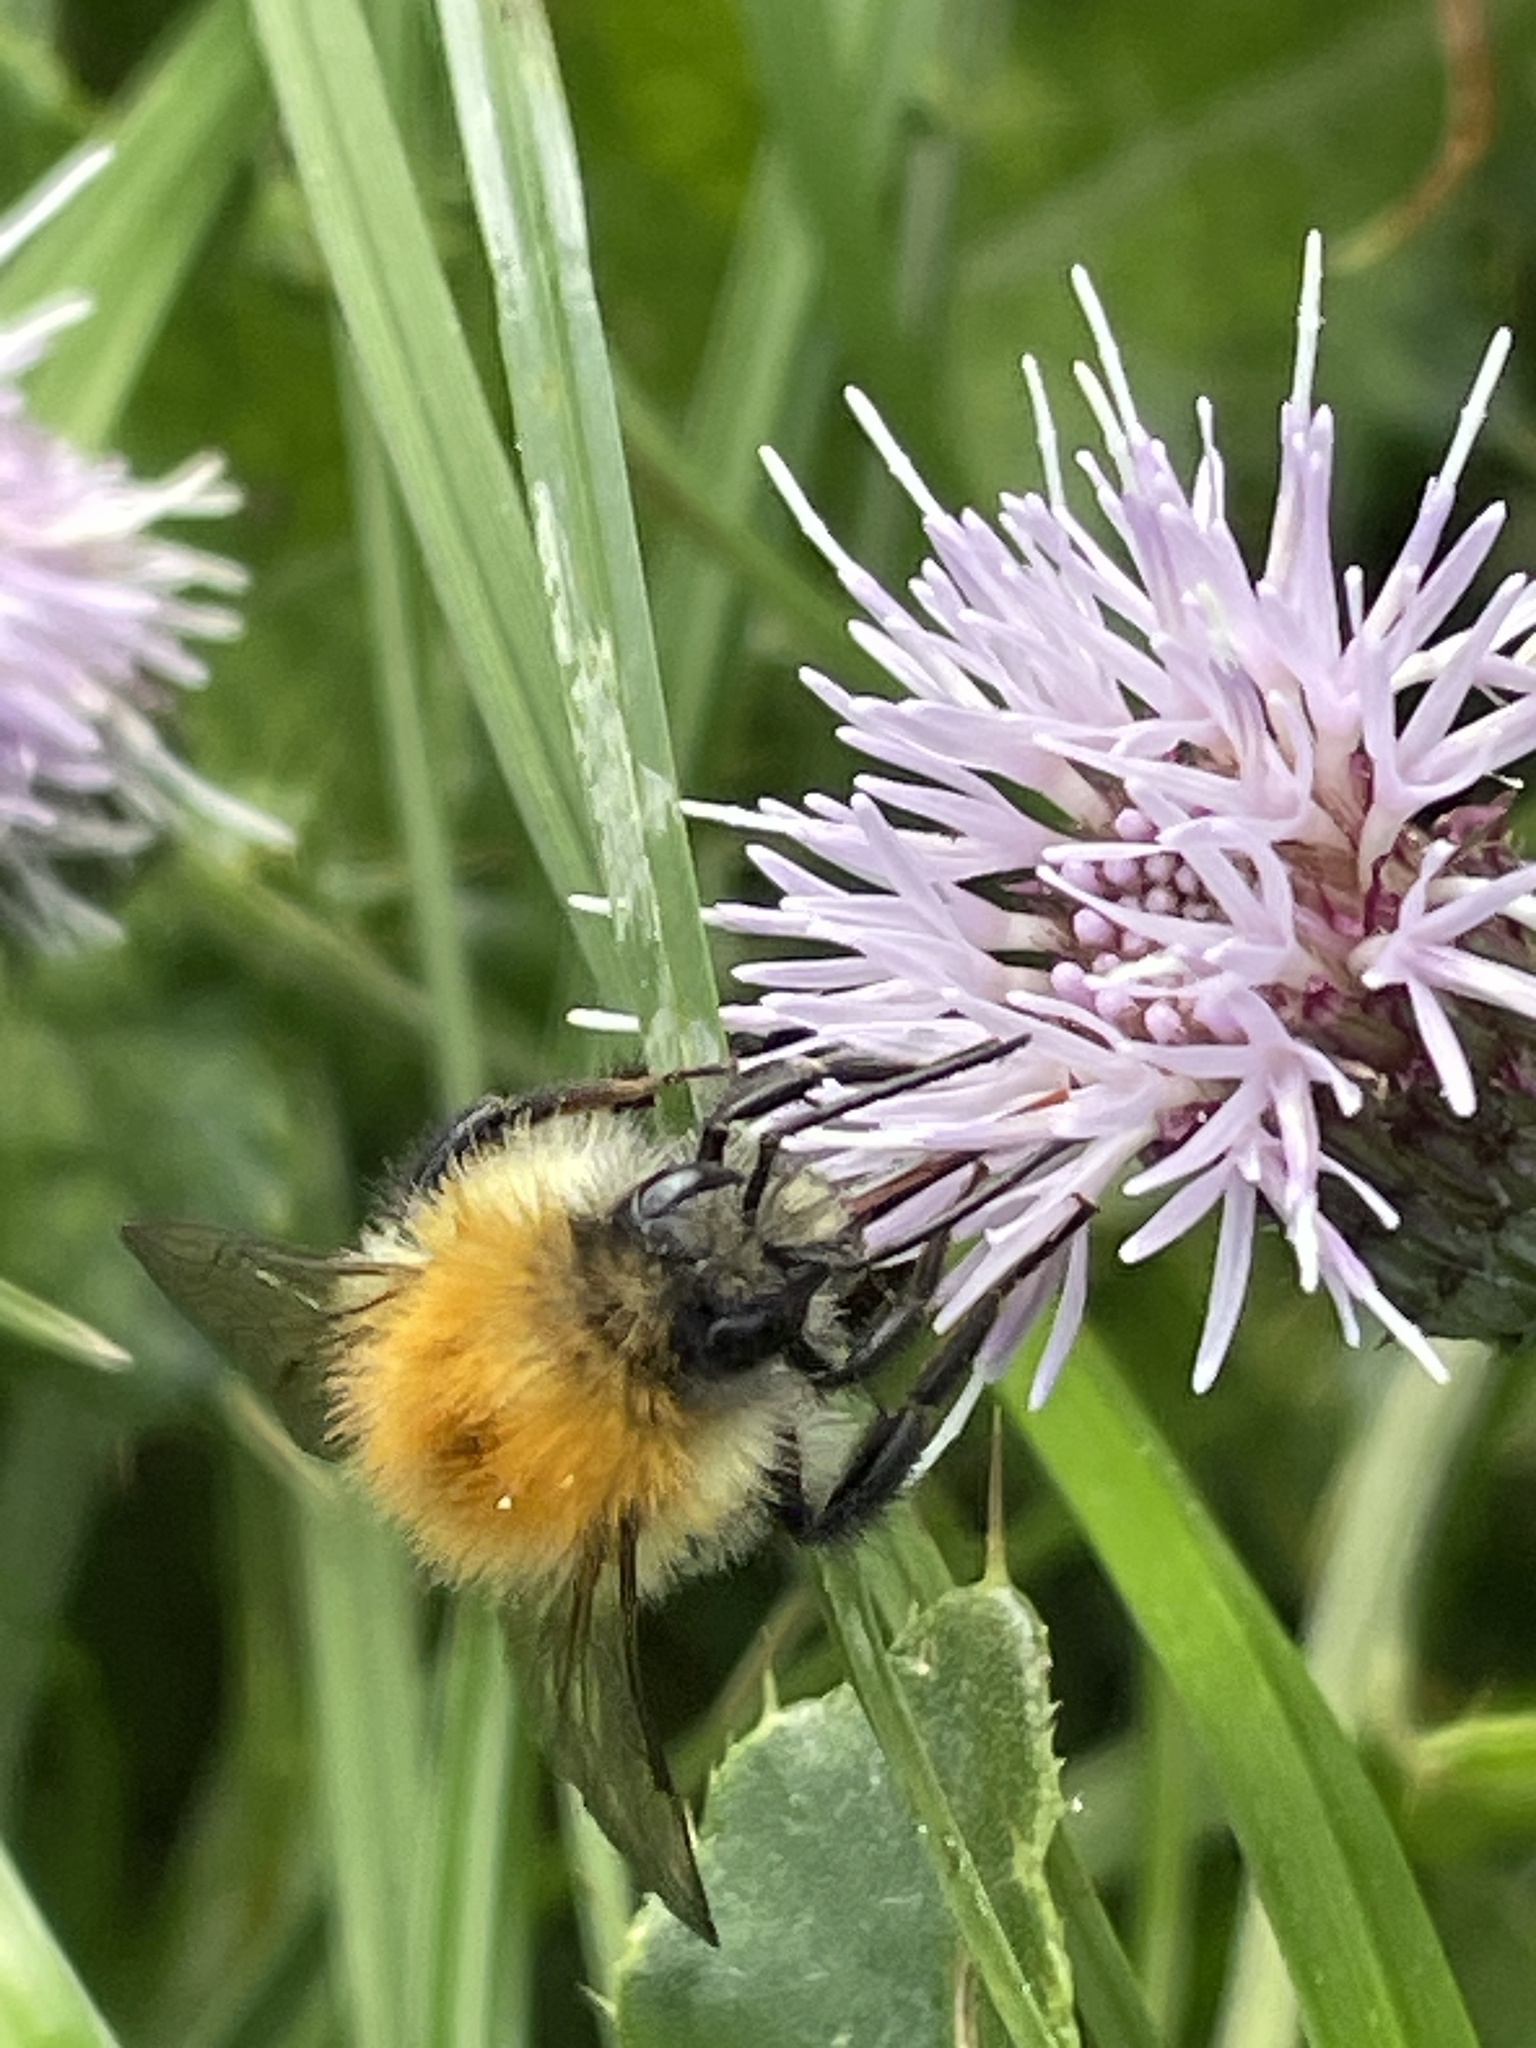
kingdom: Animalia
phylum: Arthropoda
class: Insecta
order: Hymenoptera
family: Apidae
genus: Bombus
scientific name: Bombus pascuorum
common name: Common carder bee
